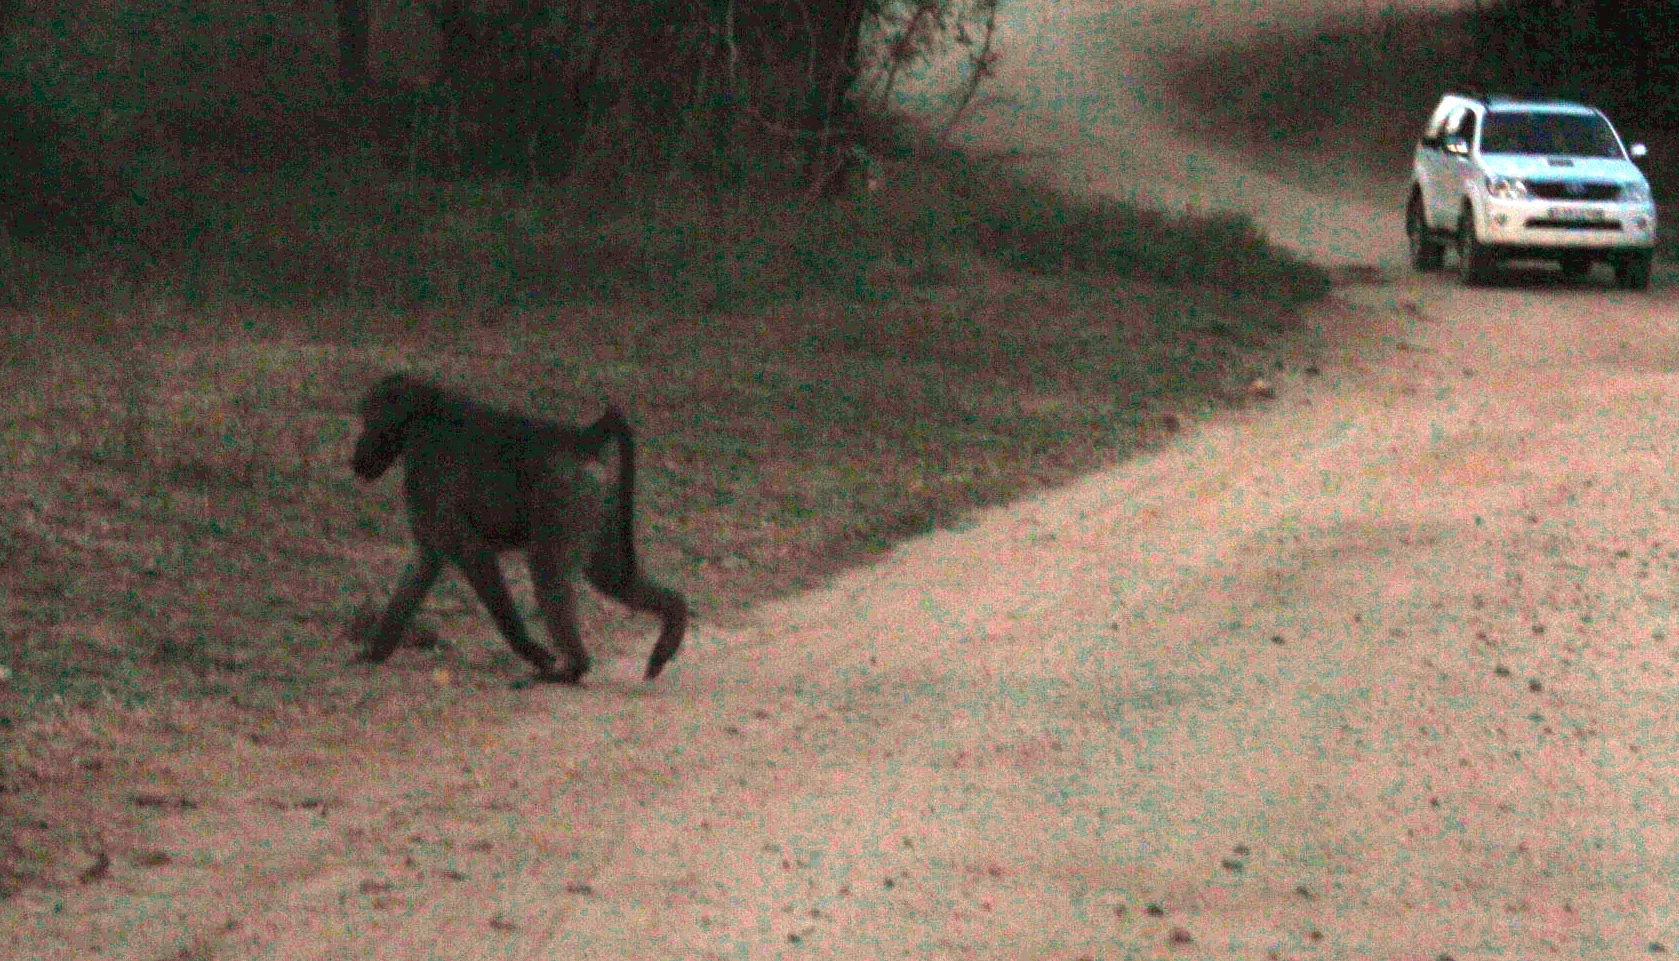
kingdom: Animalia
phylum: Chordata
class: Mammalia
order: Primates
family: Cercopithecidae
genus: Papio
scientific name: Papio ursinus
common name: Chacma baboon
